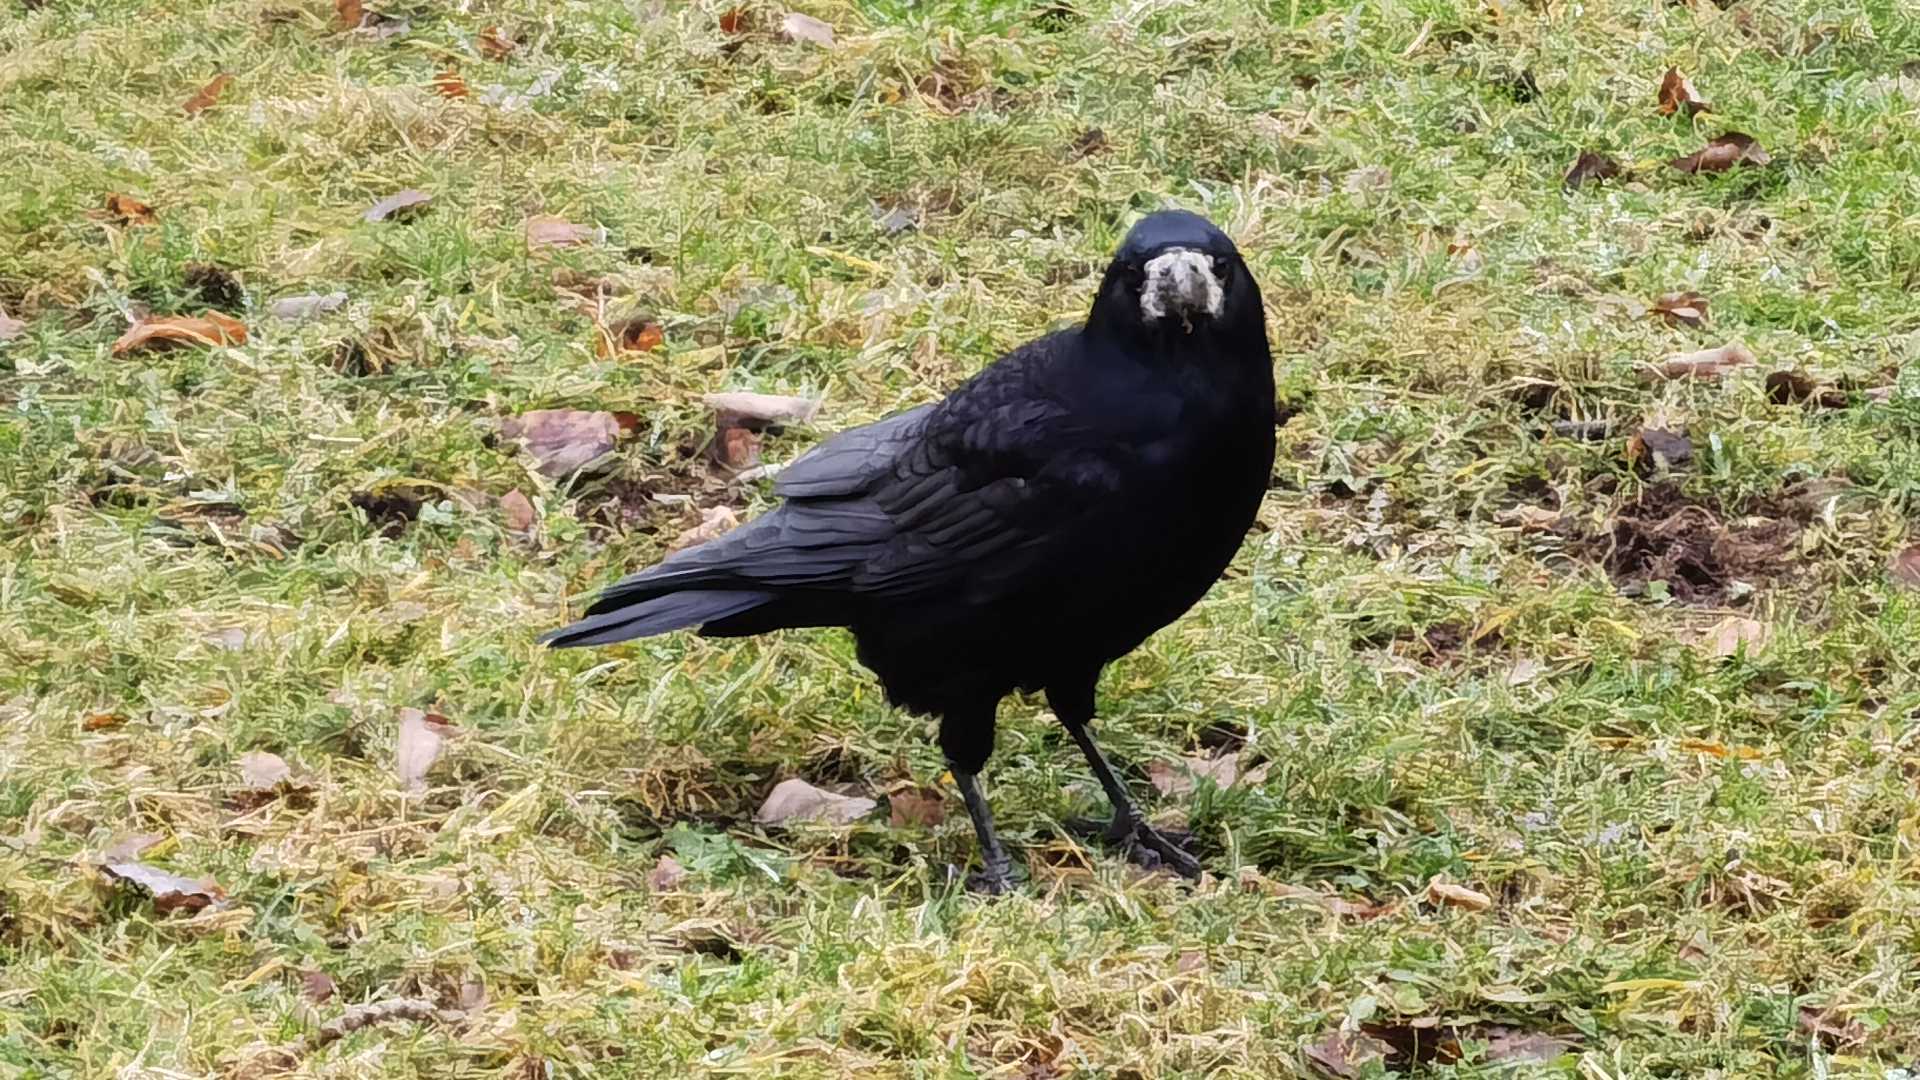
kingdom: Animalia
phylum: Chordata
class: Aves
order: Passeriformes
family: Corvidae
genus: Corvus
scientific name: Corvus frugilegus
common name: Rook
